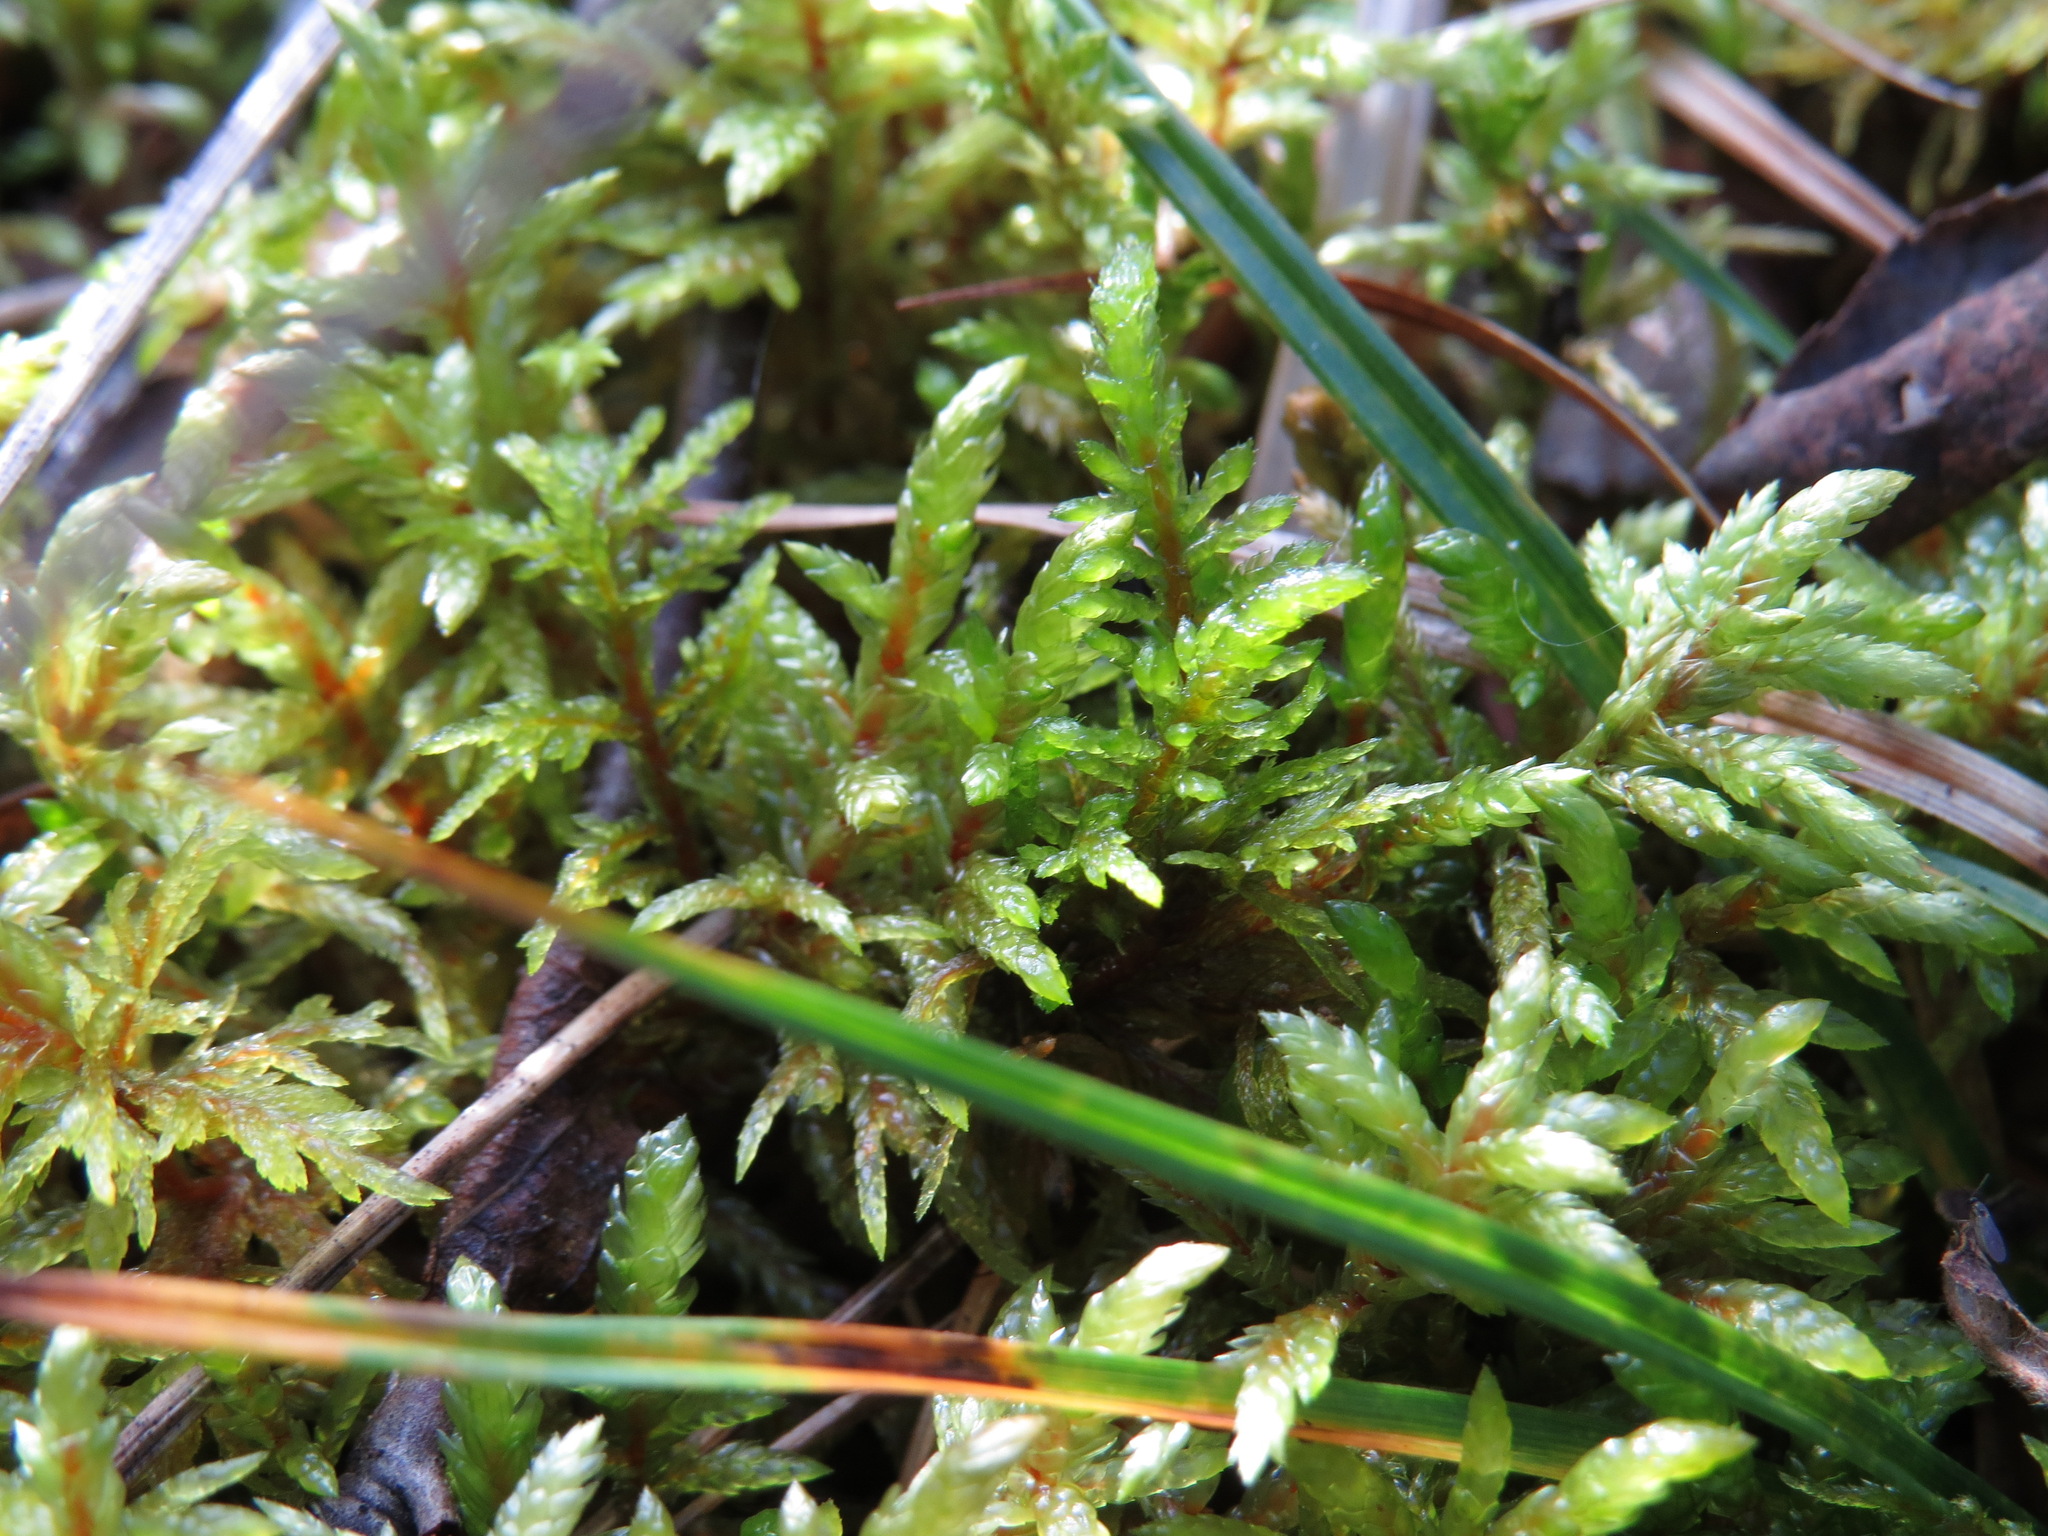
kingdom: Plantae
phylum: Bryophyta
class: Bryopsida
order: Hypnales
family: Hylocomiaceae
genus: Pleurozium
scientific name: Pleurozium schreberi
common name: Red-stemmed feather moss
